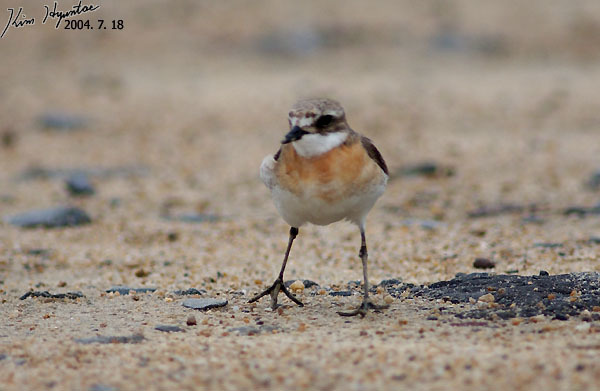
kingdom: Animalia
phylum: Chordata
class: Aves
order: Charadriiformes
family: Charadriidae
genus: Anarhynchus
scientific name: Anarhynchus
